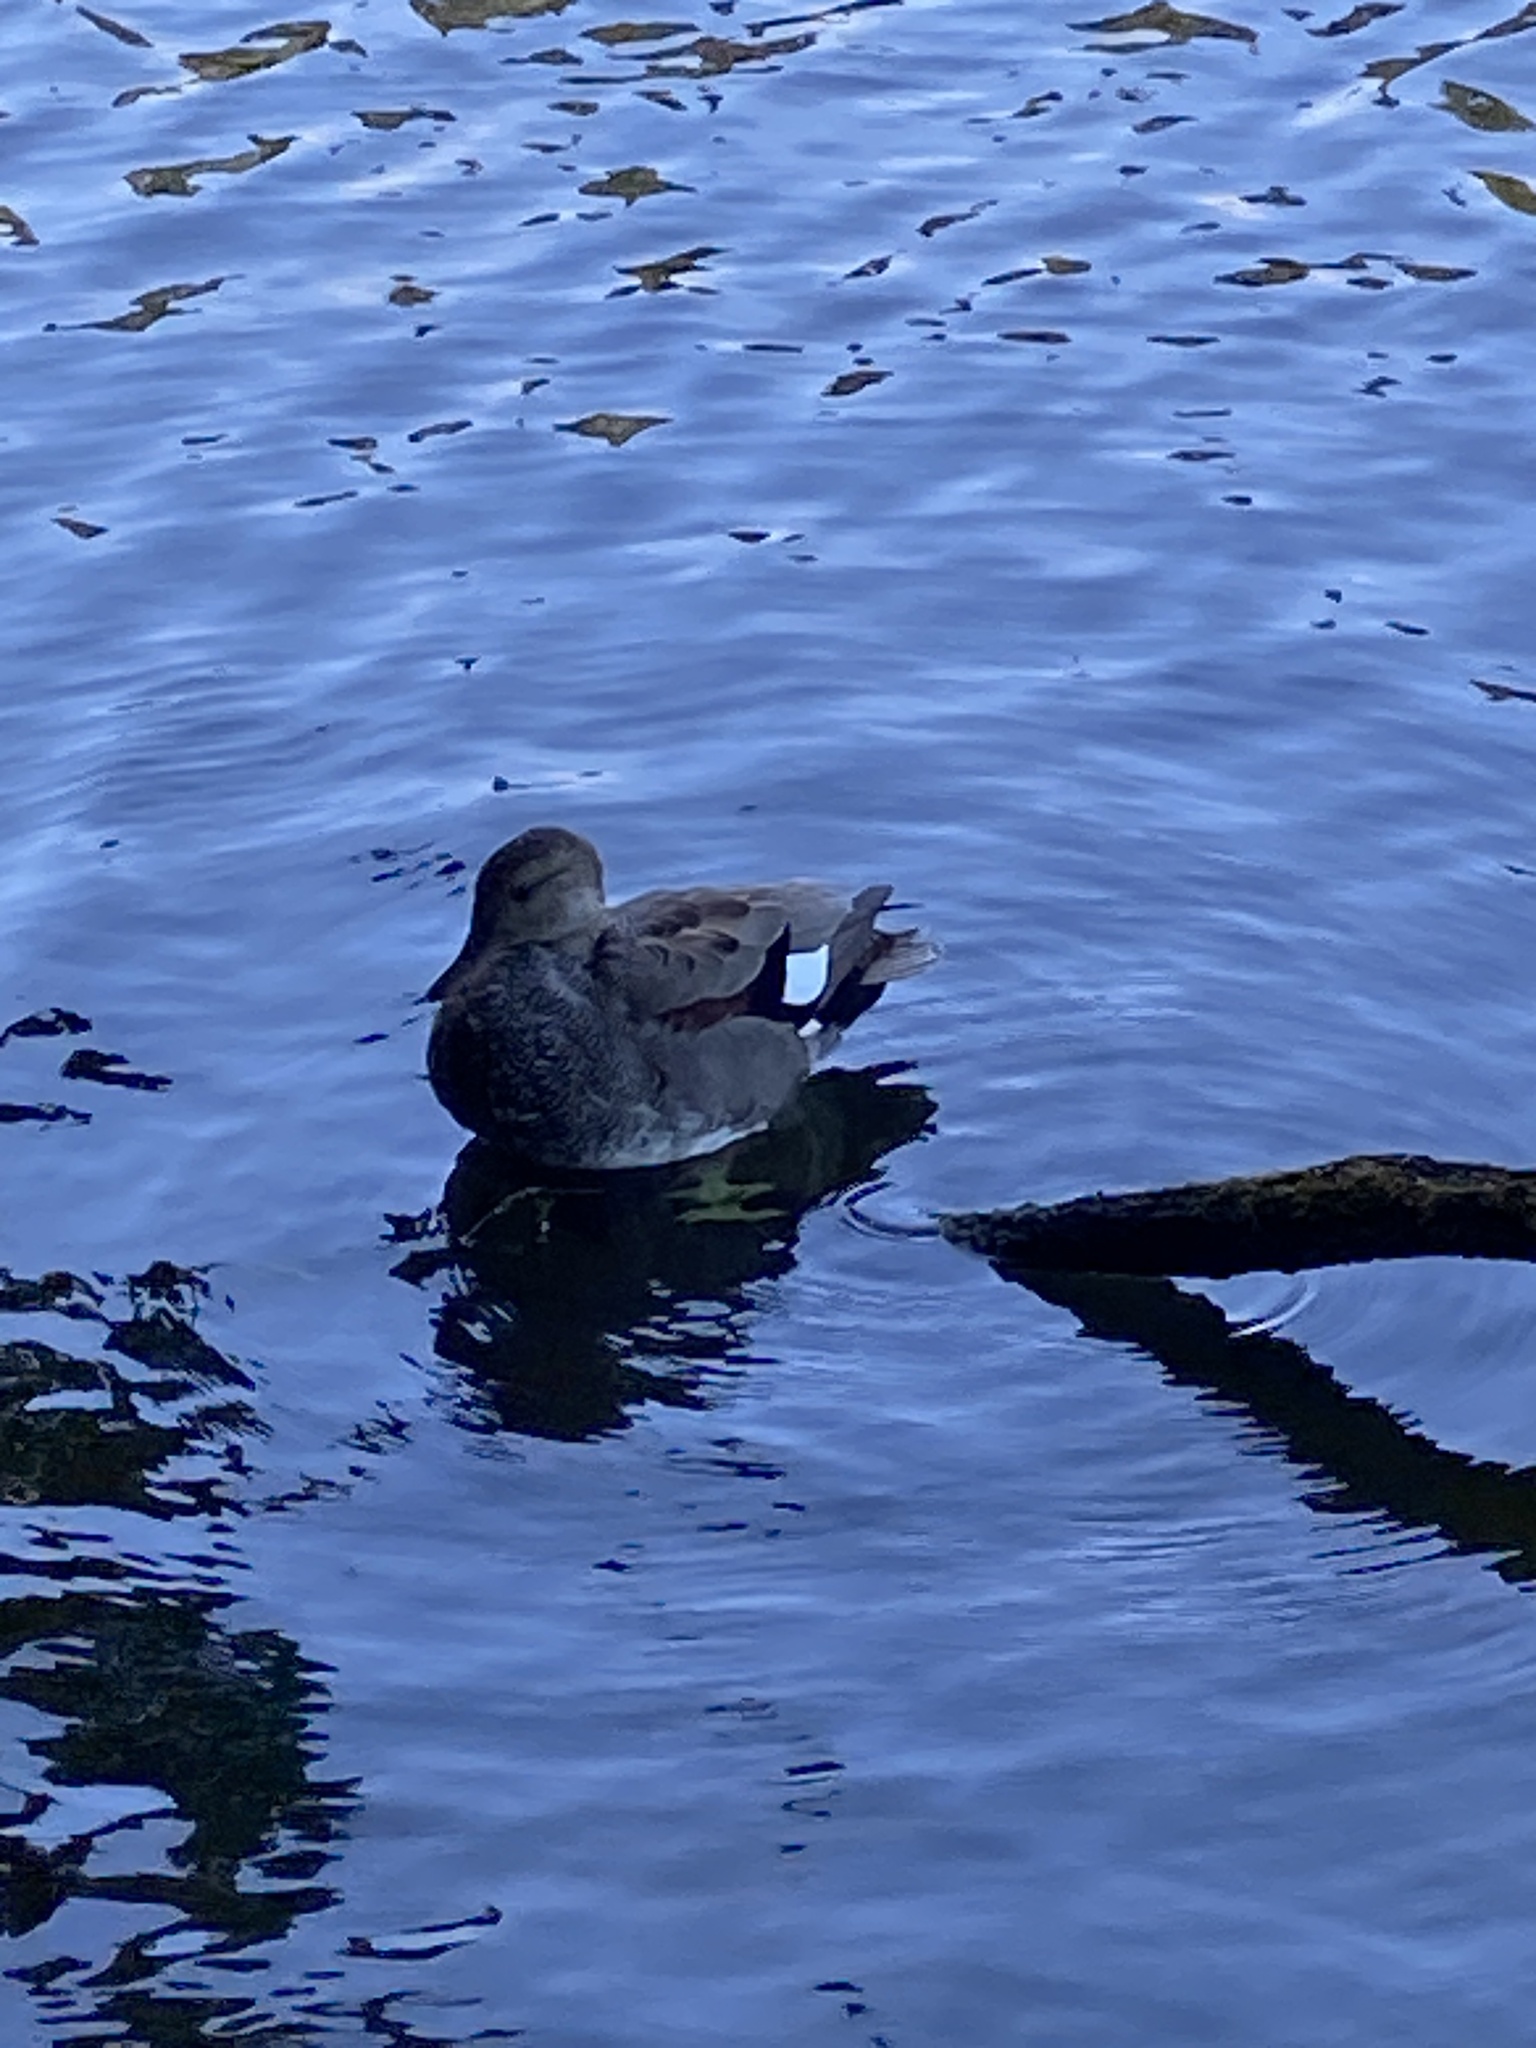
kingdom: Animalia
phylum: Chordata
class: Aves
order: Anseriformes
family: Anatidae
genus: Mareca
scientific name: Mareca strepera
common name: Gadwall
